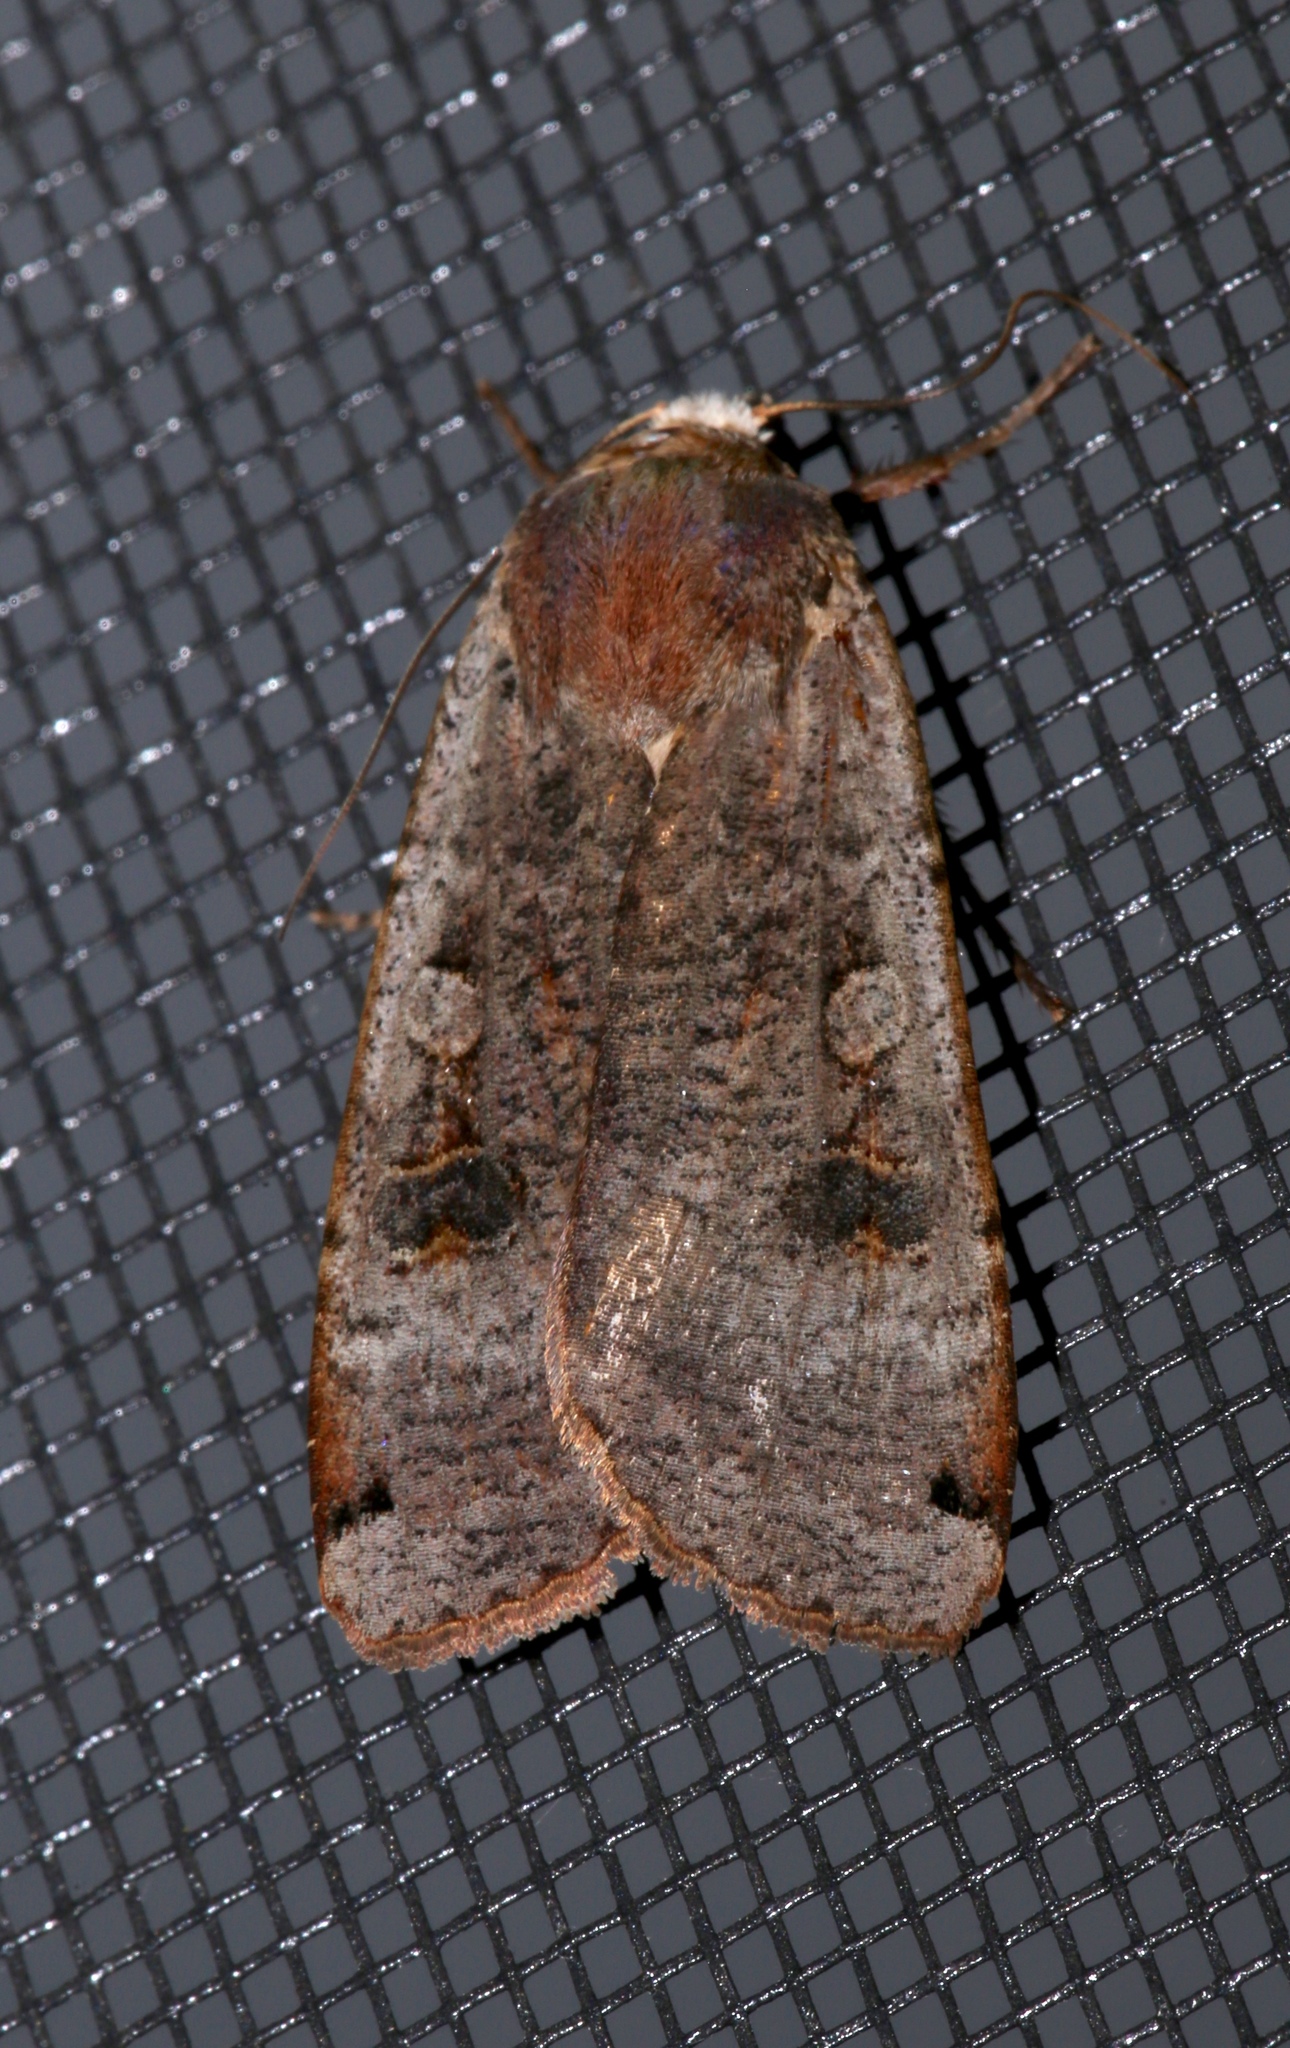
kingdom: Animalia
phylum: Arthropoda
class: Insecta
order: Lepidoptera
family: Noctuidae
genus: Noctua
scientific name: Noctua pronuba
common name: Large yellow underwing
